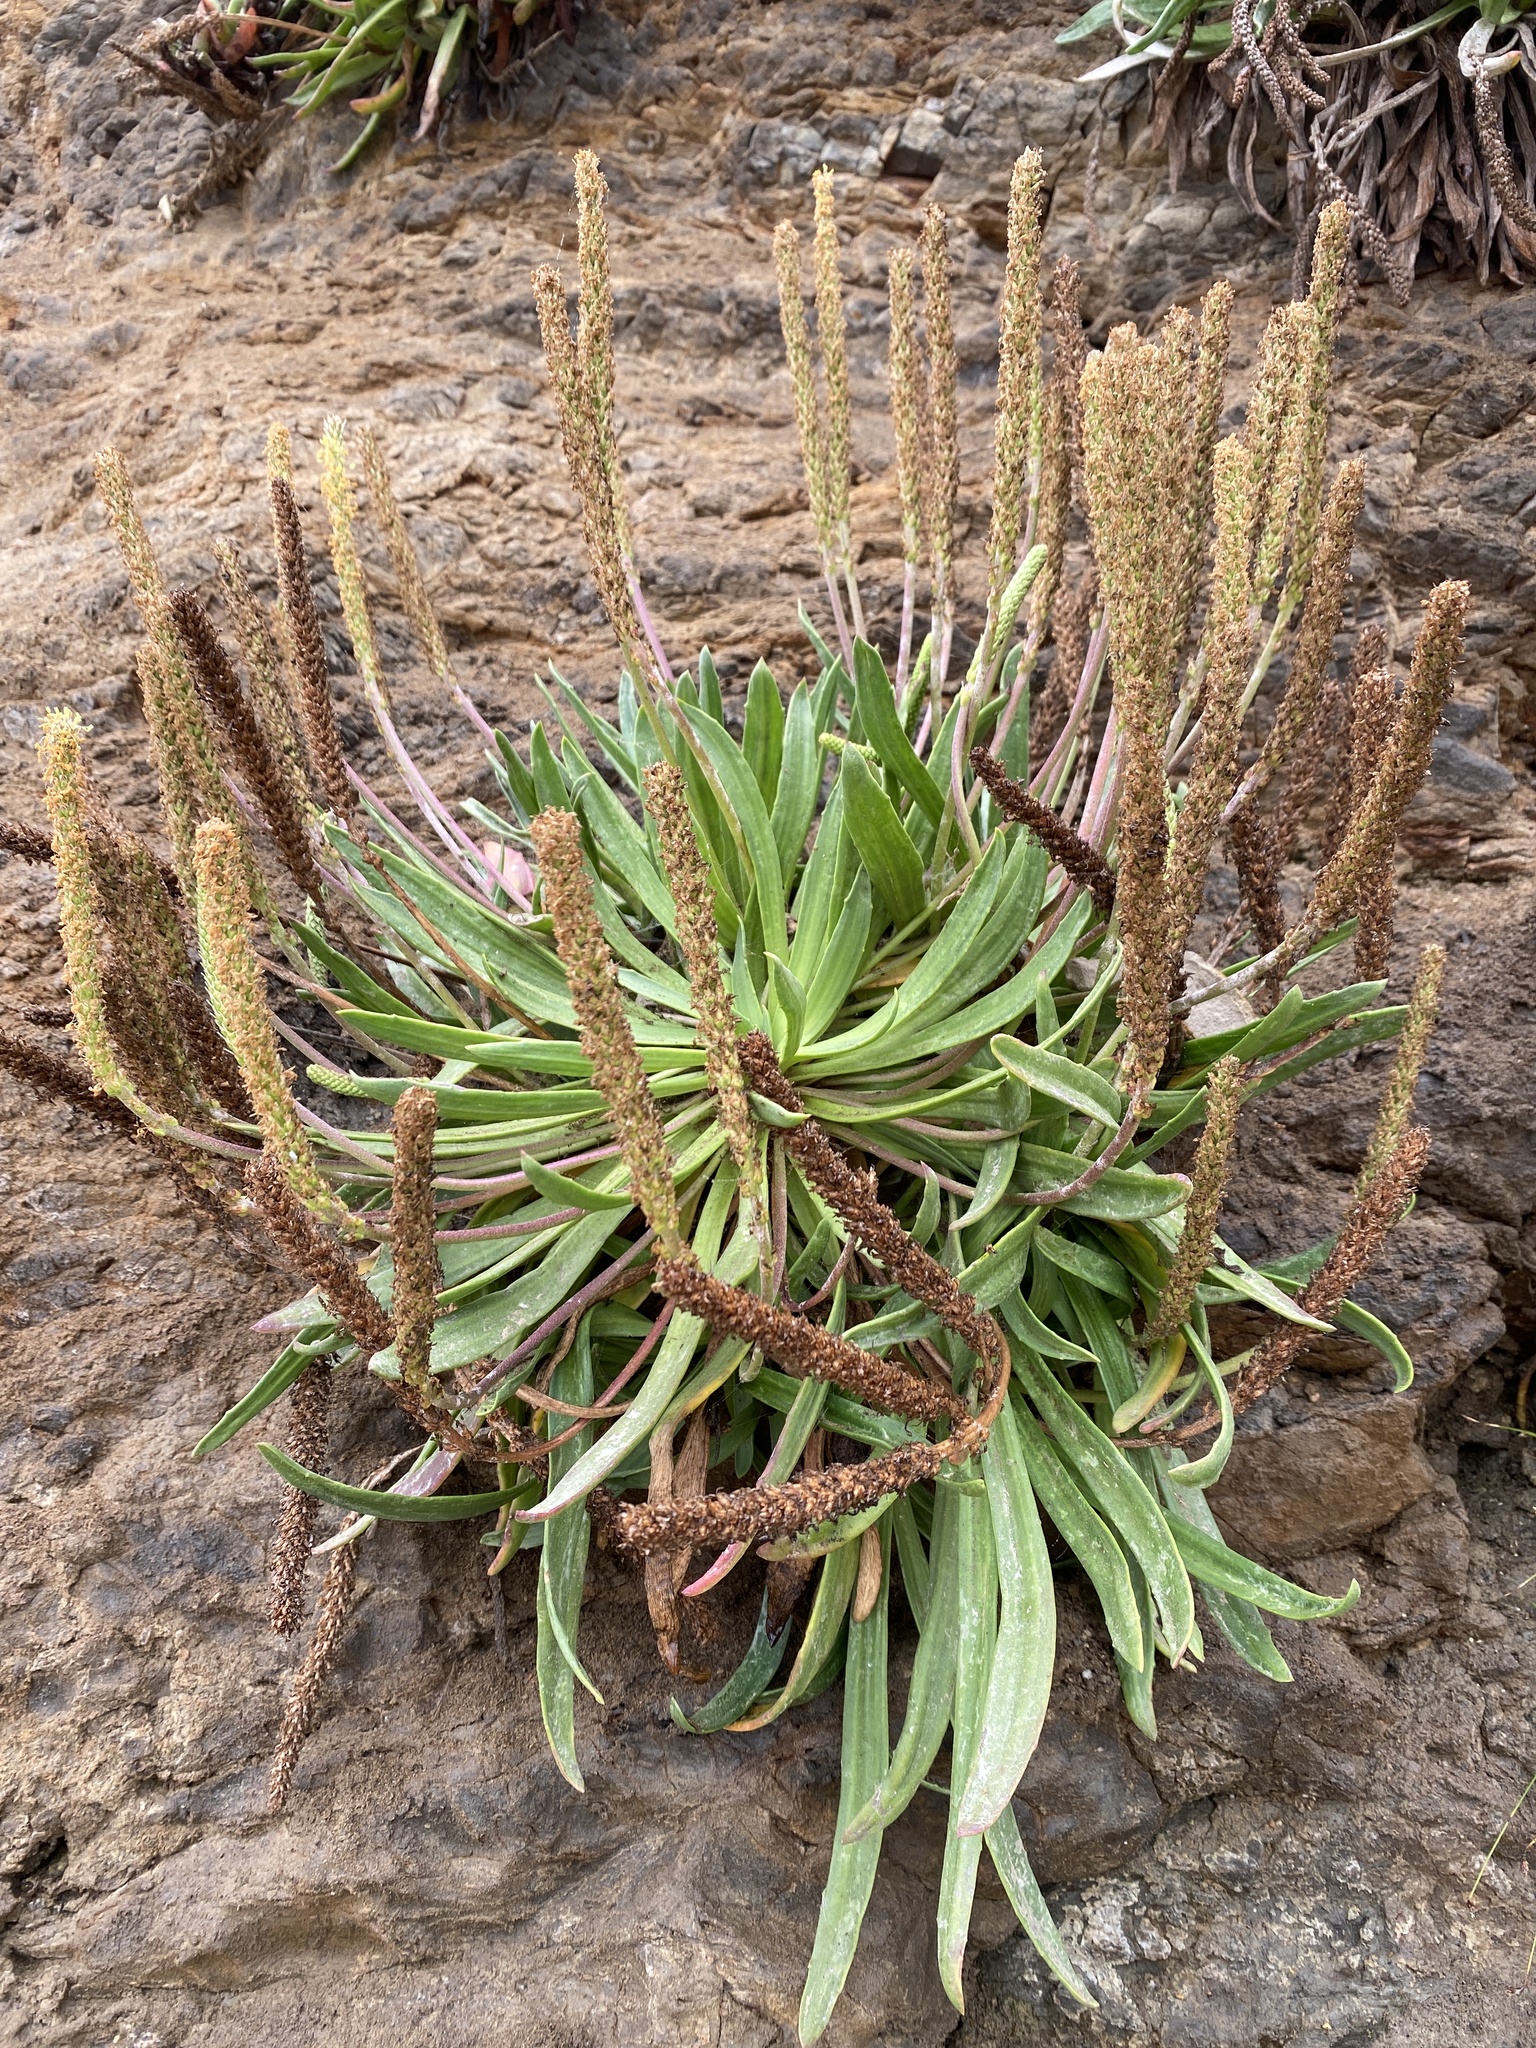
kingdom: Plantae
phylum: Tracheophyta
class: Magnoliopsida
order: Lamiales
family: Plantaginaceae
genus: Plantago
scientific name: Plantago maritima
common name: Sea plantain
